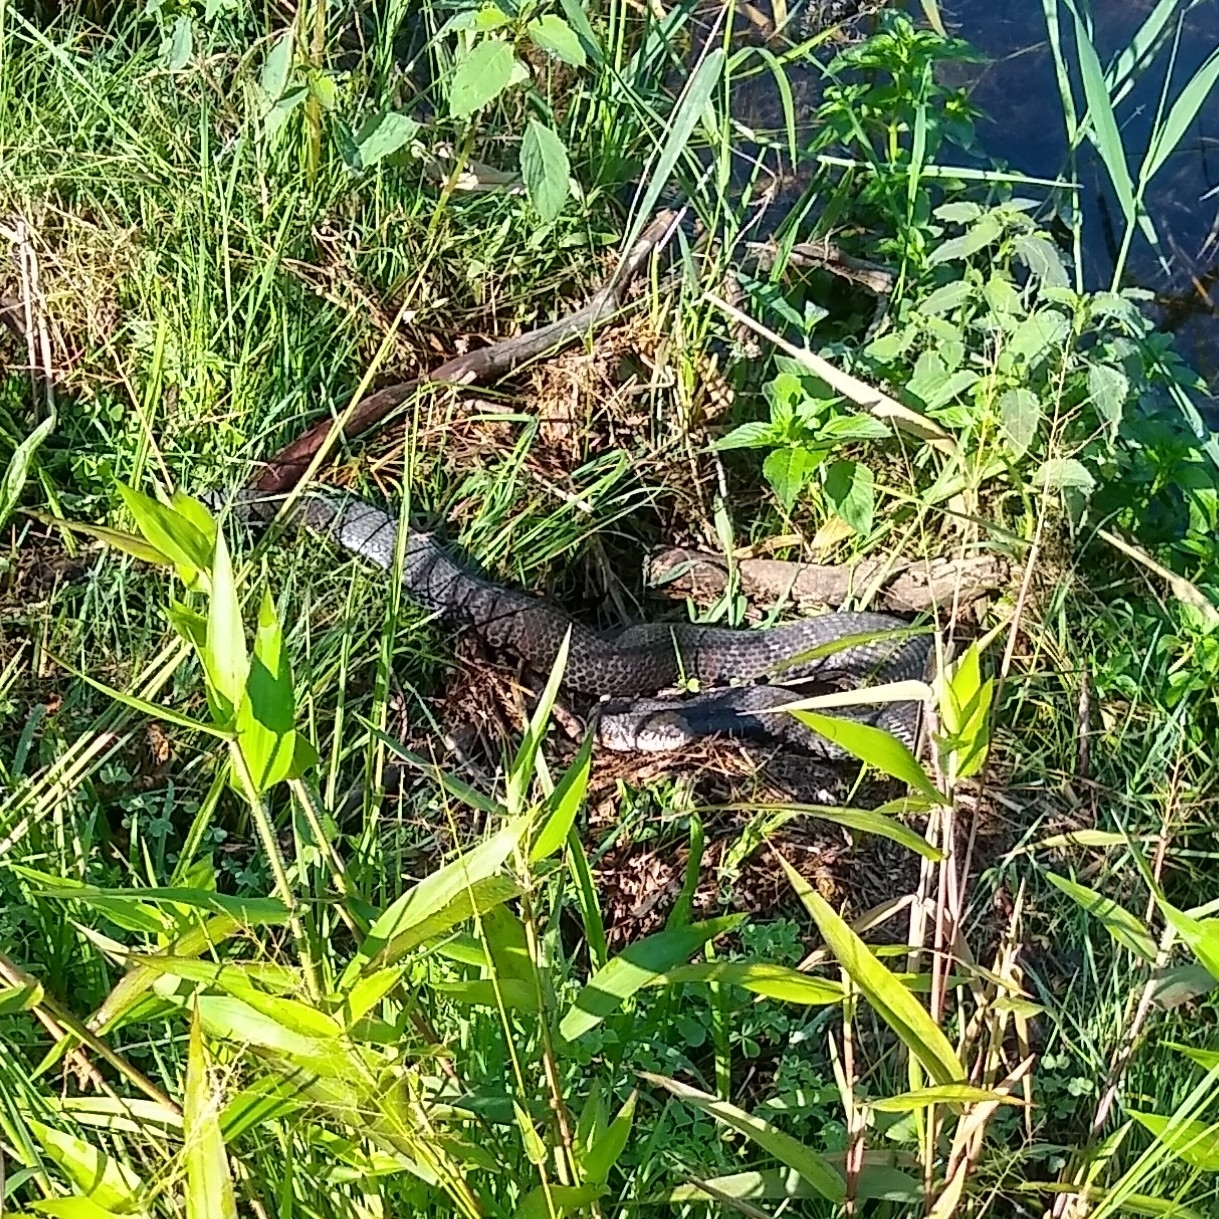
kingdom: Animalia
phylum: Chordata
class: Squamata
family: Colubridae
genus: Nerodia
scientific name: Nerodia sipedon
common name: Northern water snake
